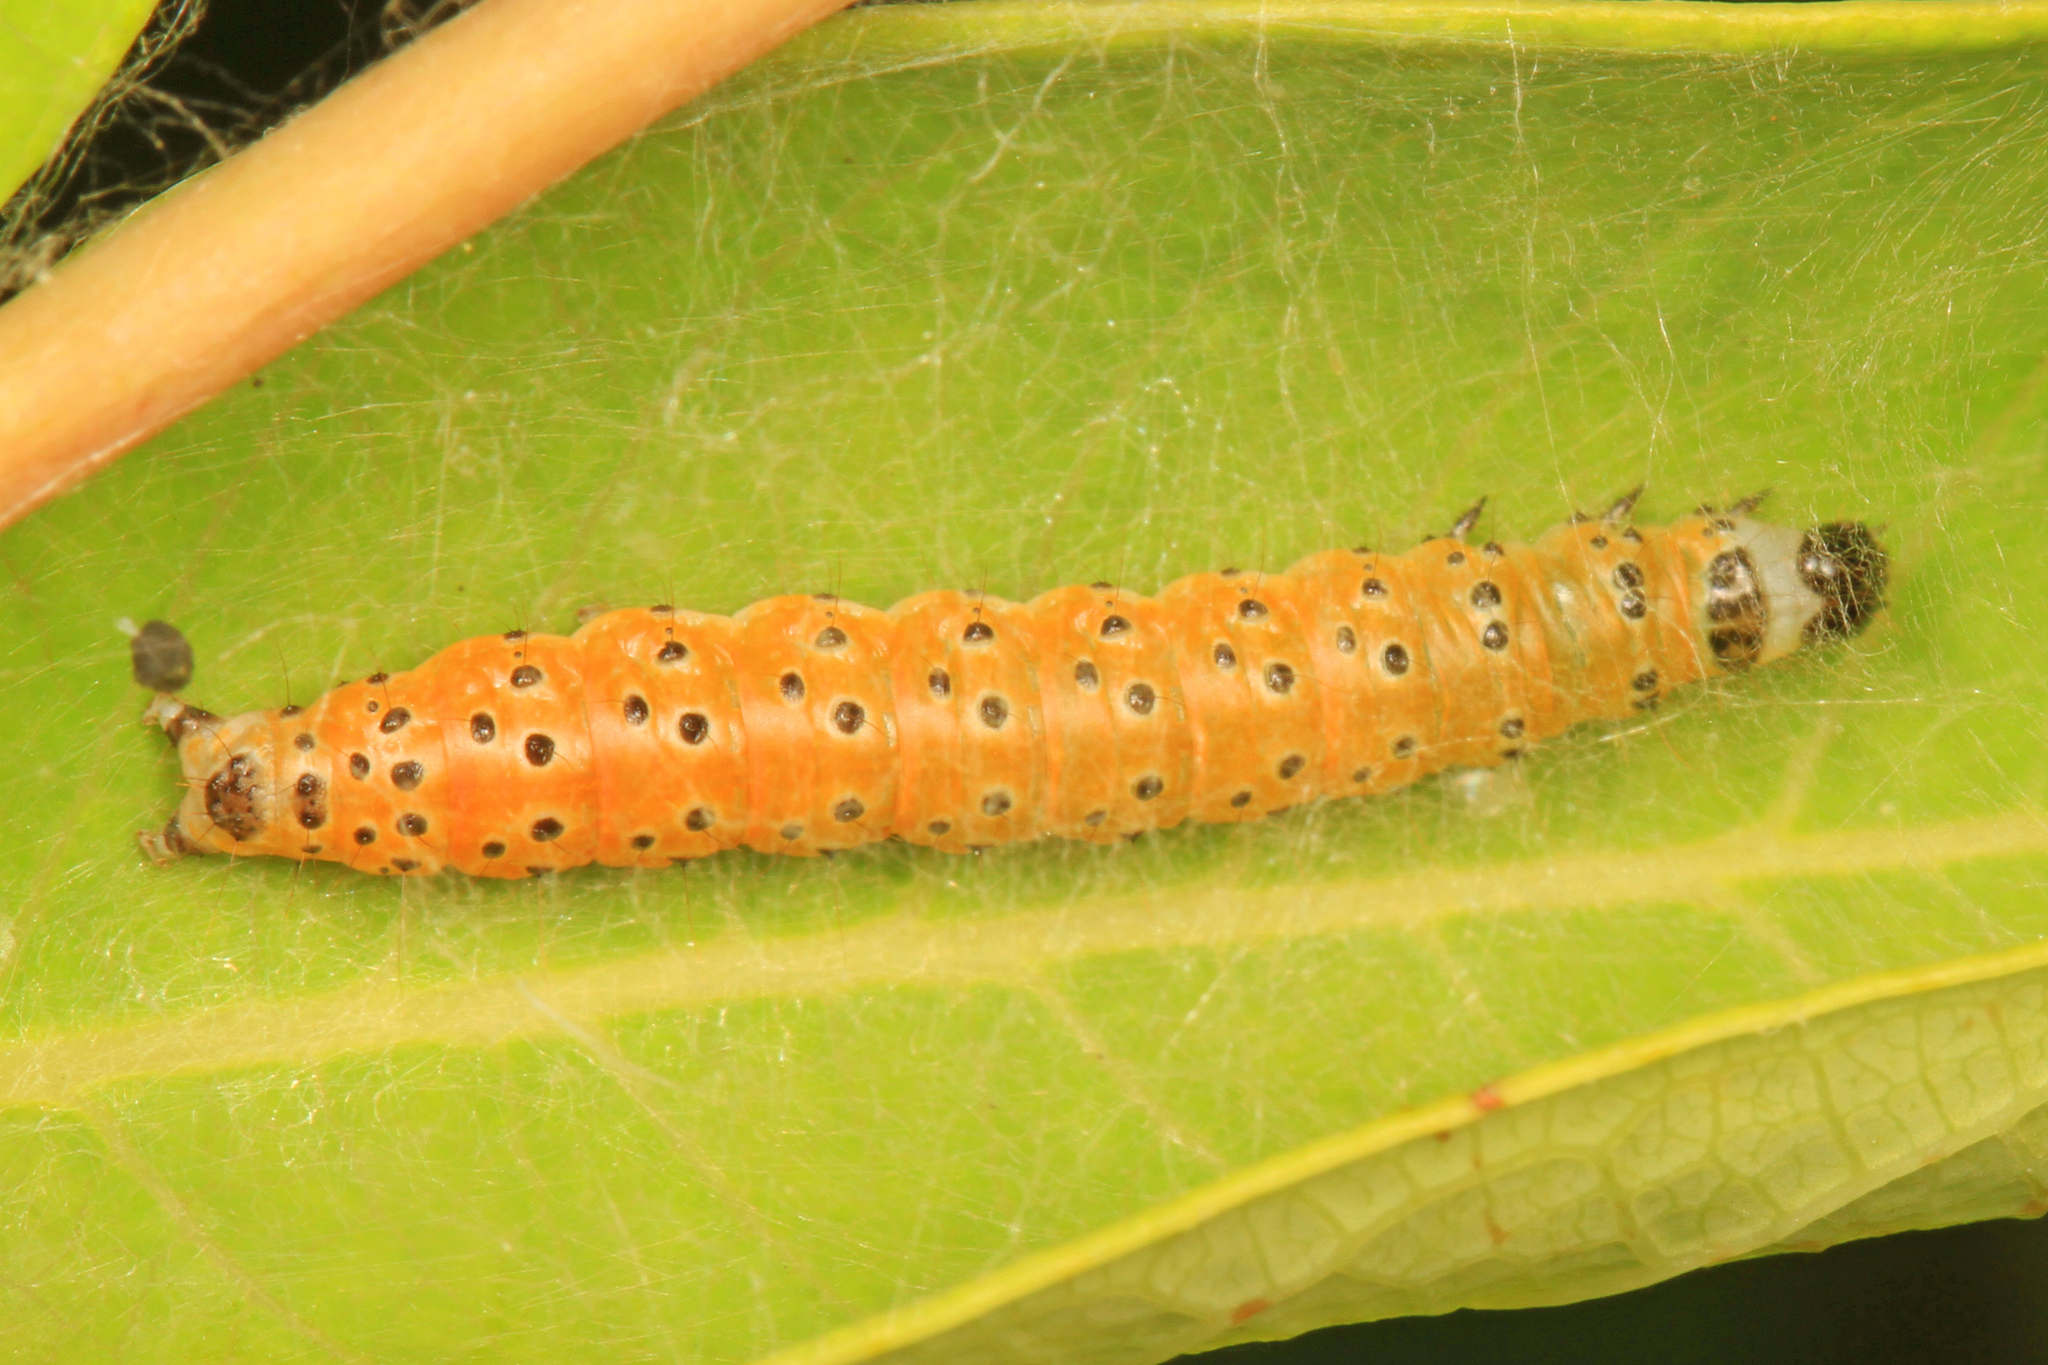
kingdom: Animalia
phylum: Arthropoda
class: Insecta
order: Lepidoptera
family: Crambidae
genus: Saucrobotys
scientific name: Saucrobotys futilalis
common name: Dogbane saucrobotys moth
